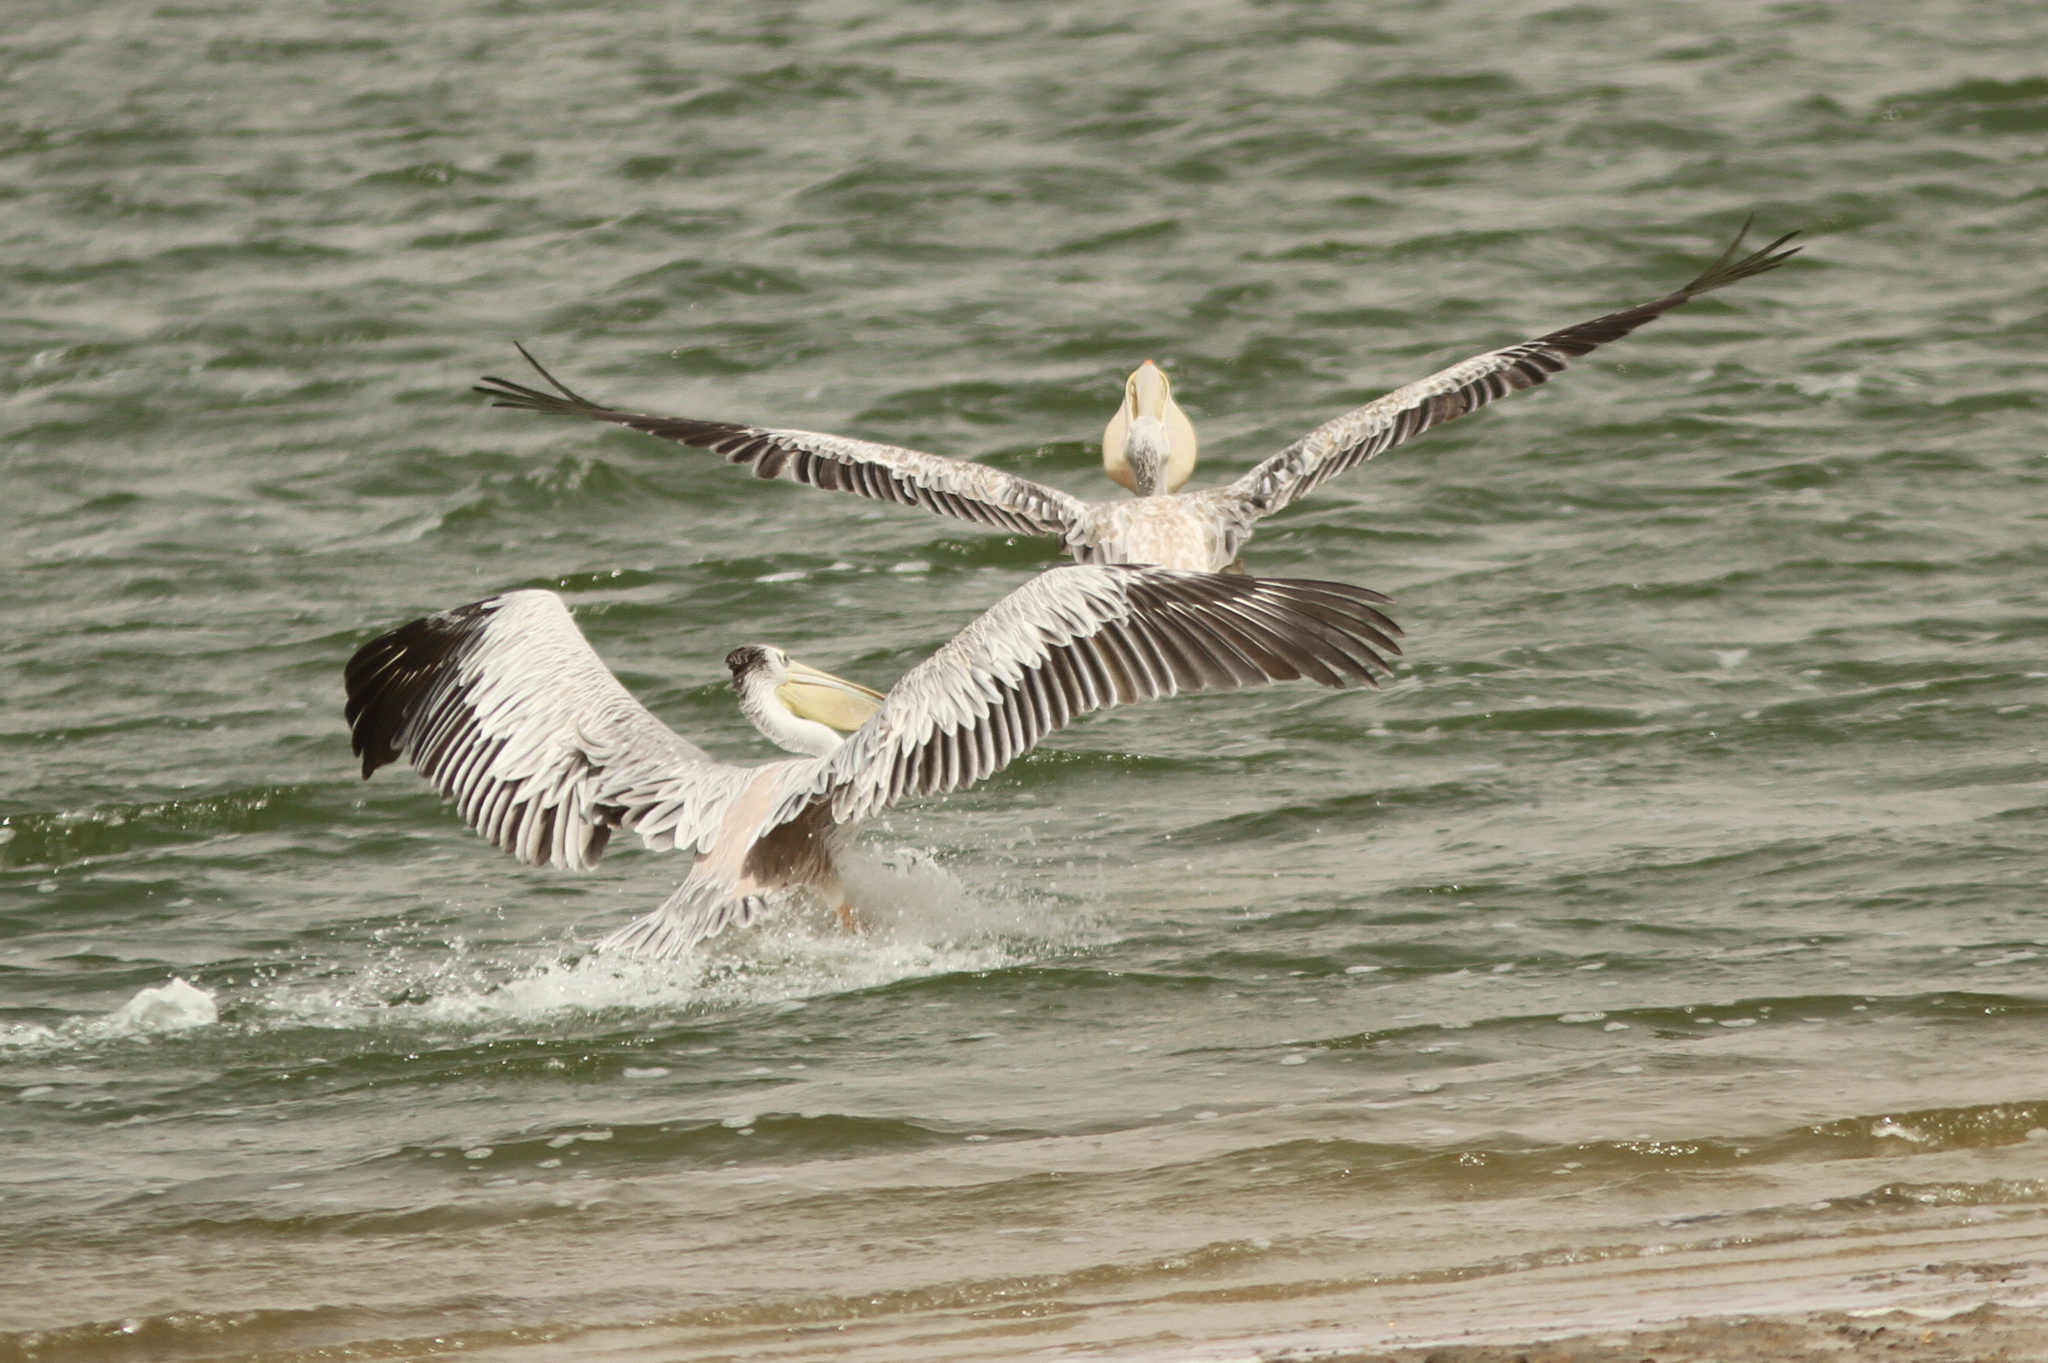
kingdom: Animalia
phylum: Chordata
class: Aves
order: Pelecaniformes
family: Pelecanidae
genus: Pelecanus
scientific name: Pelecanus rufescens
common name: Pink-backed pelican
